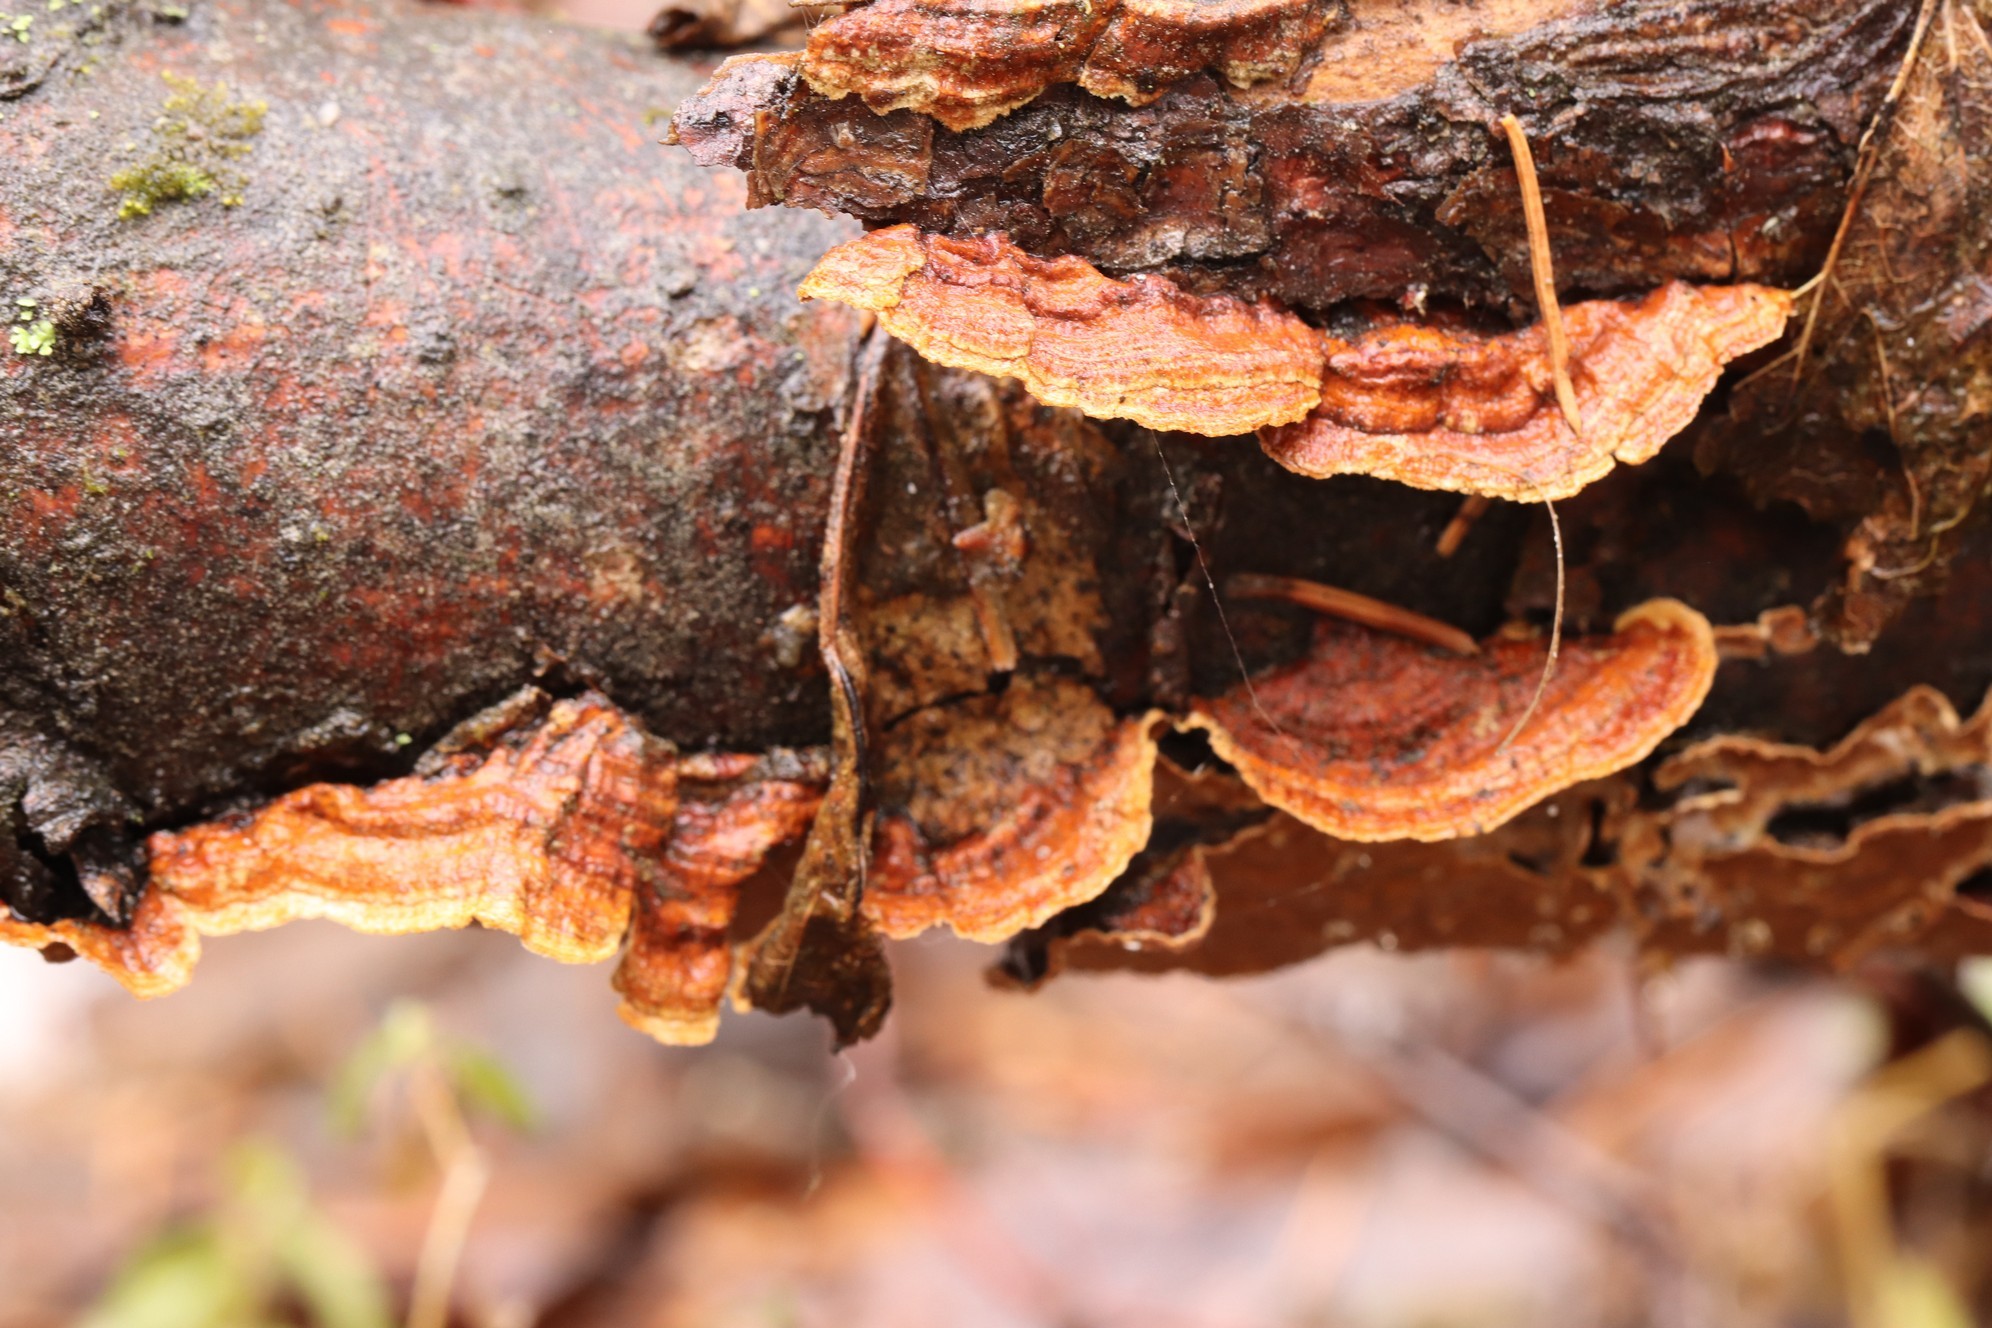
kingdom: Fungi
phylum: Basidiomycota
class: Agaricomycetes
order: Hymenochaetales
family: Hymenochaetaceae
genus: Hydnoporia
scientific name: Hydnoporia tabacina
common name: Willow glue
